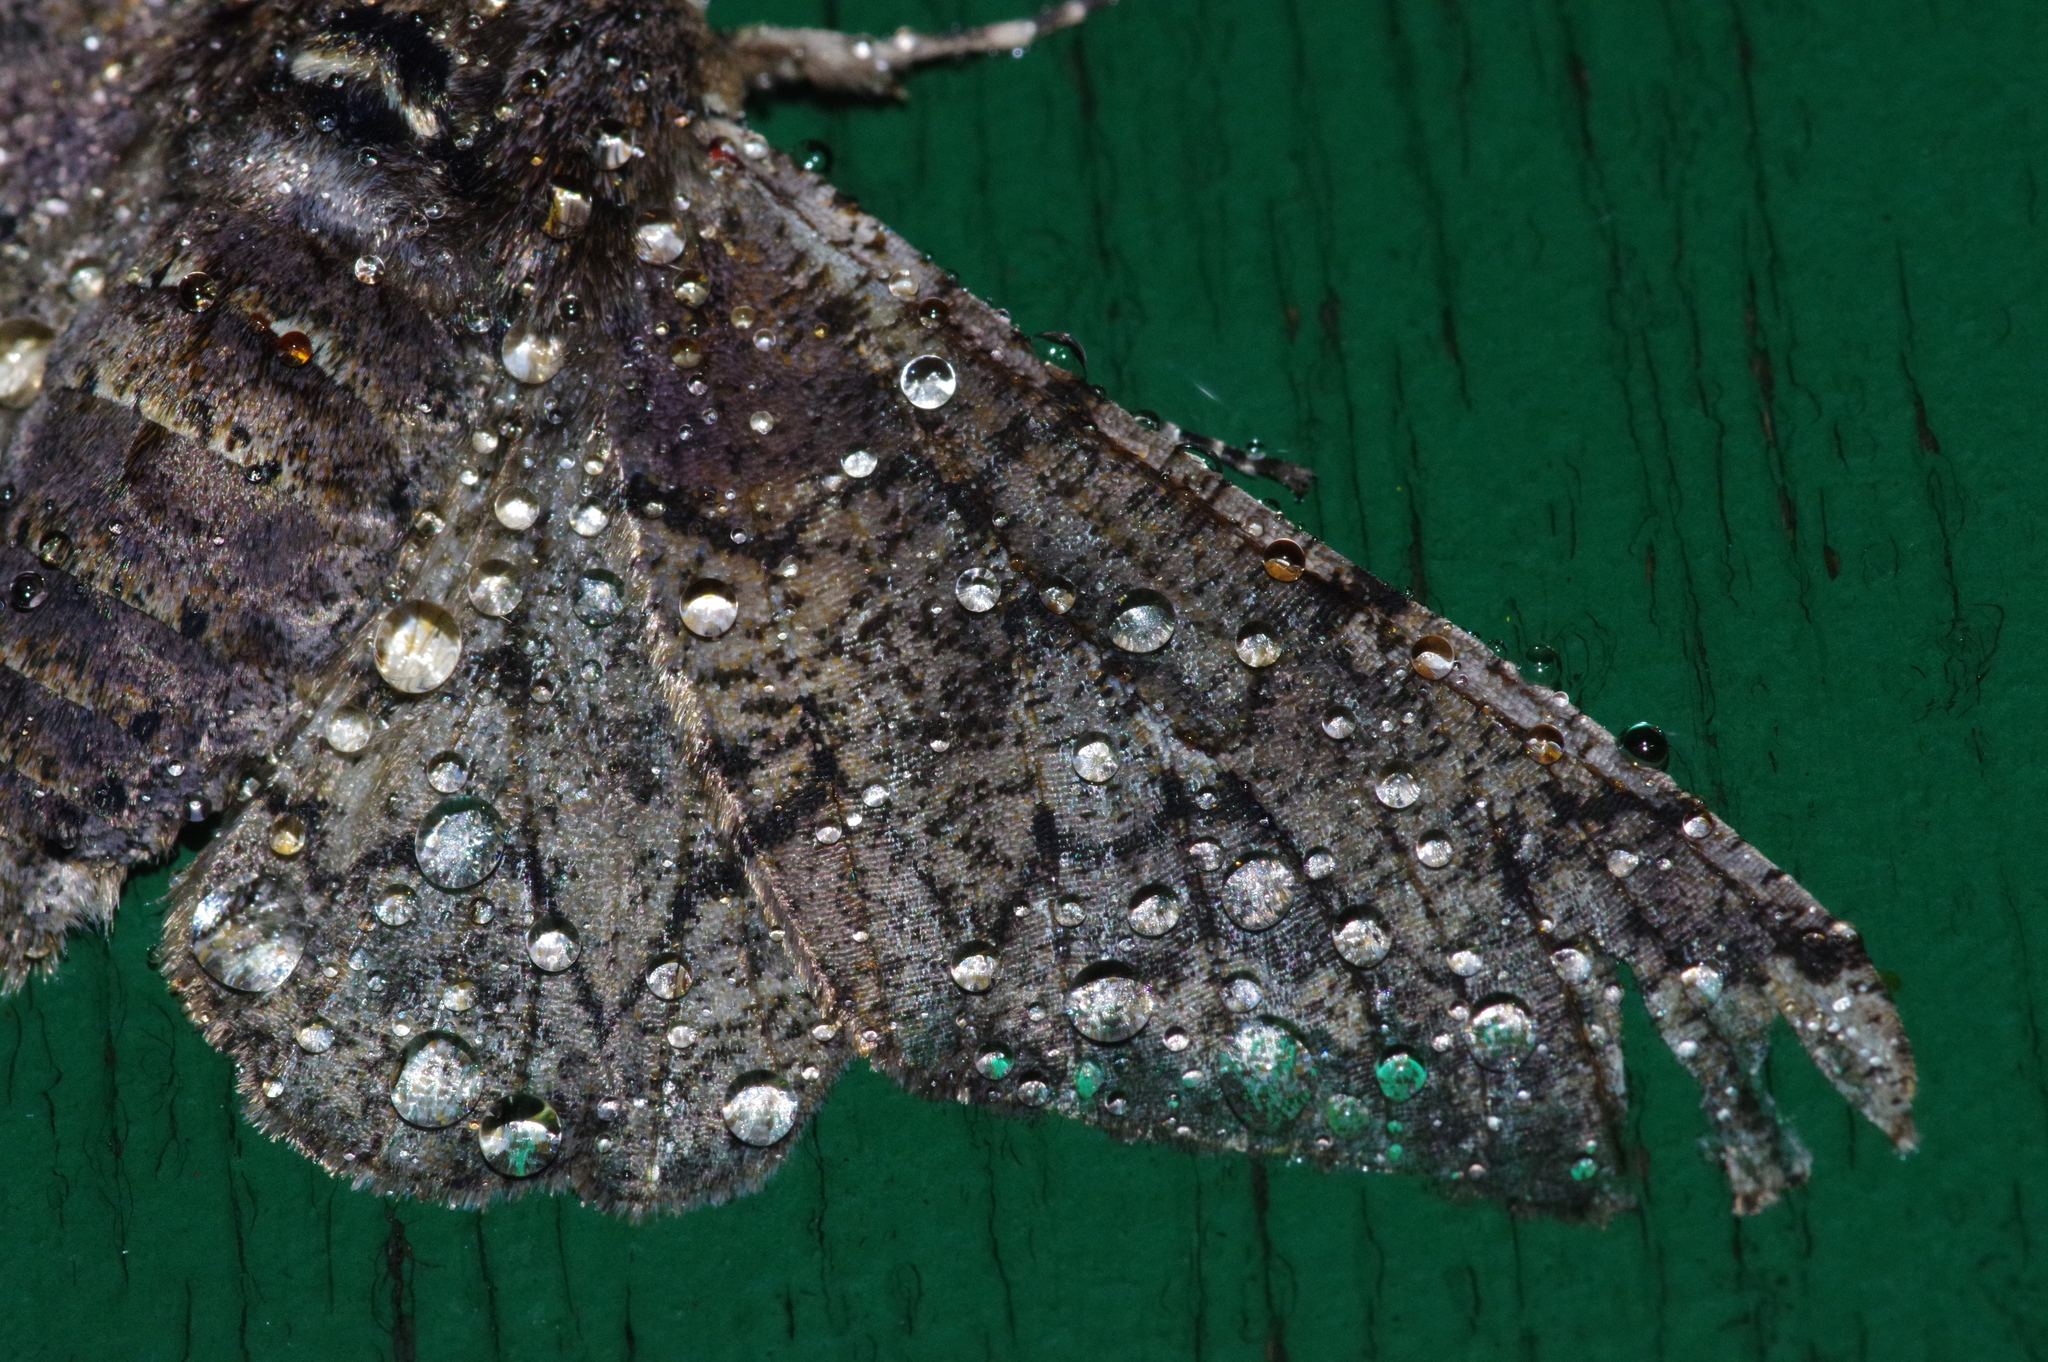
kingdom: Animalia
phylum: Arthropoda
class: Insecta
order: Lepidoptera
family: Geometridae
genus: Biston
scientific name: Biston robustum
